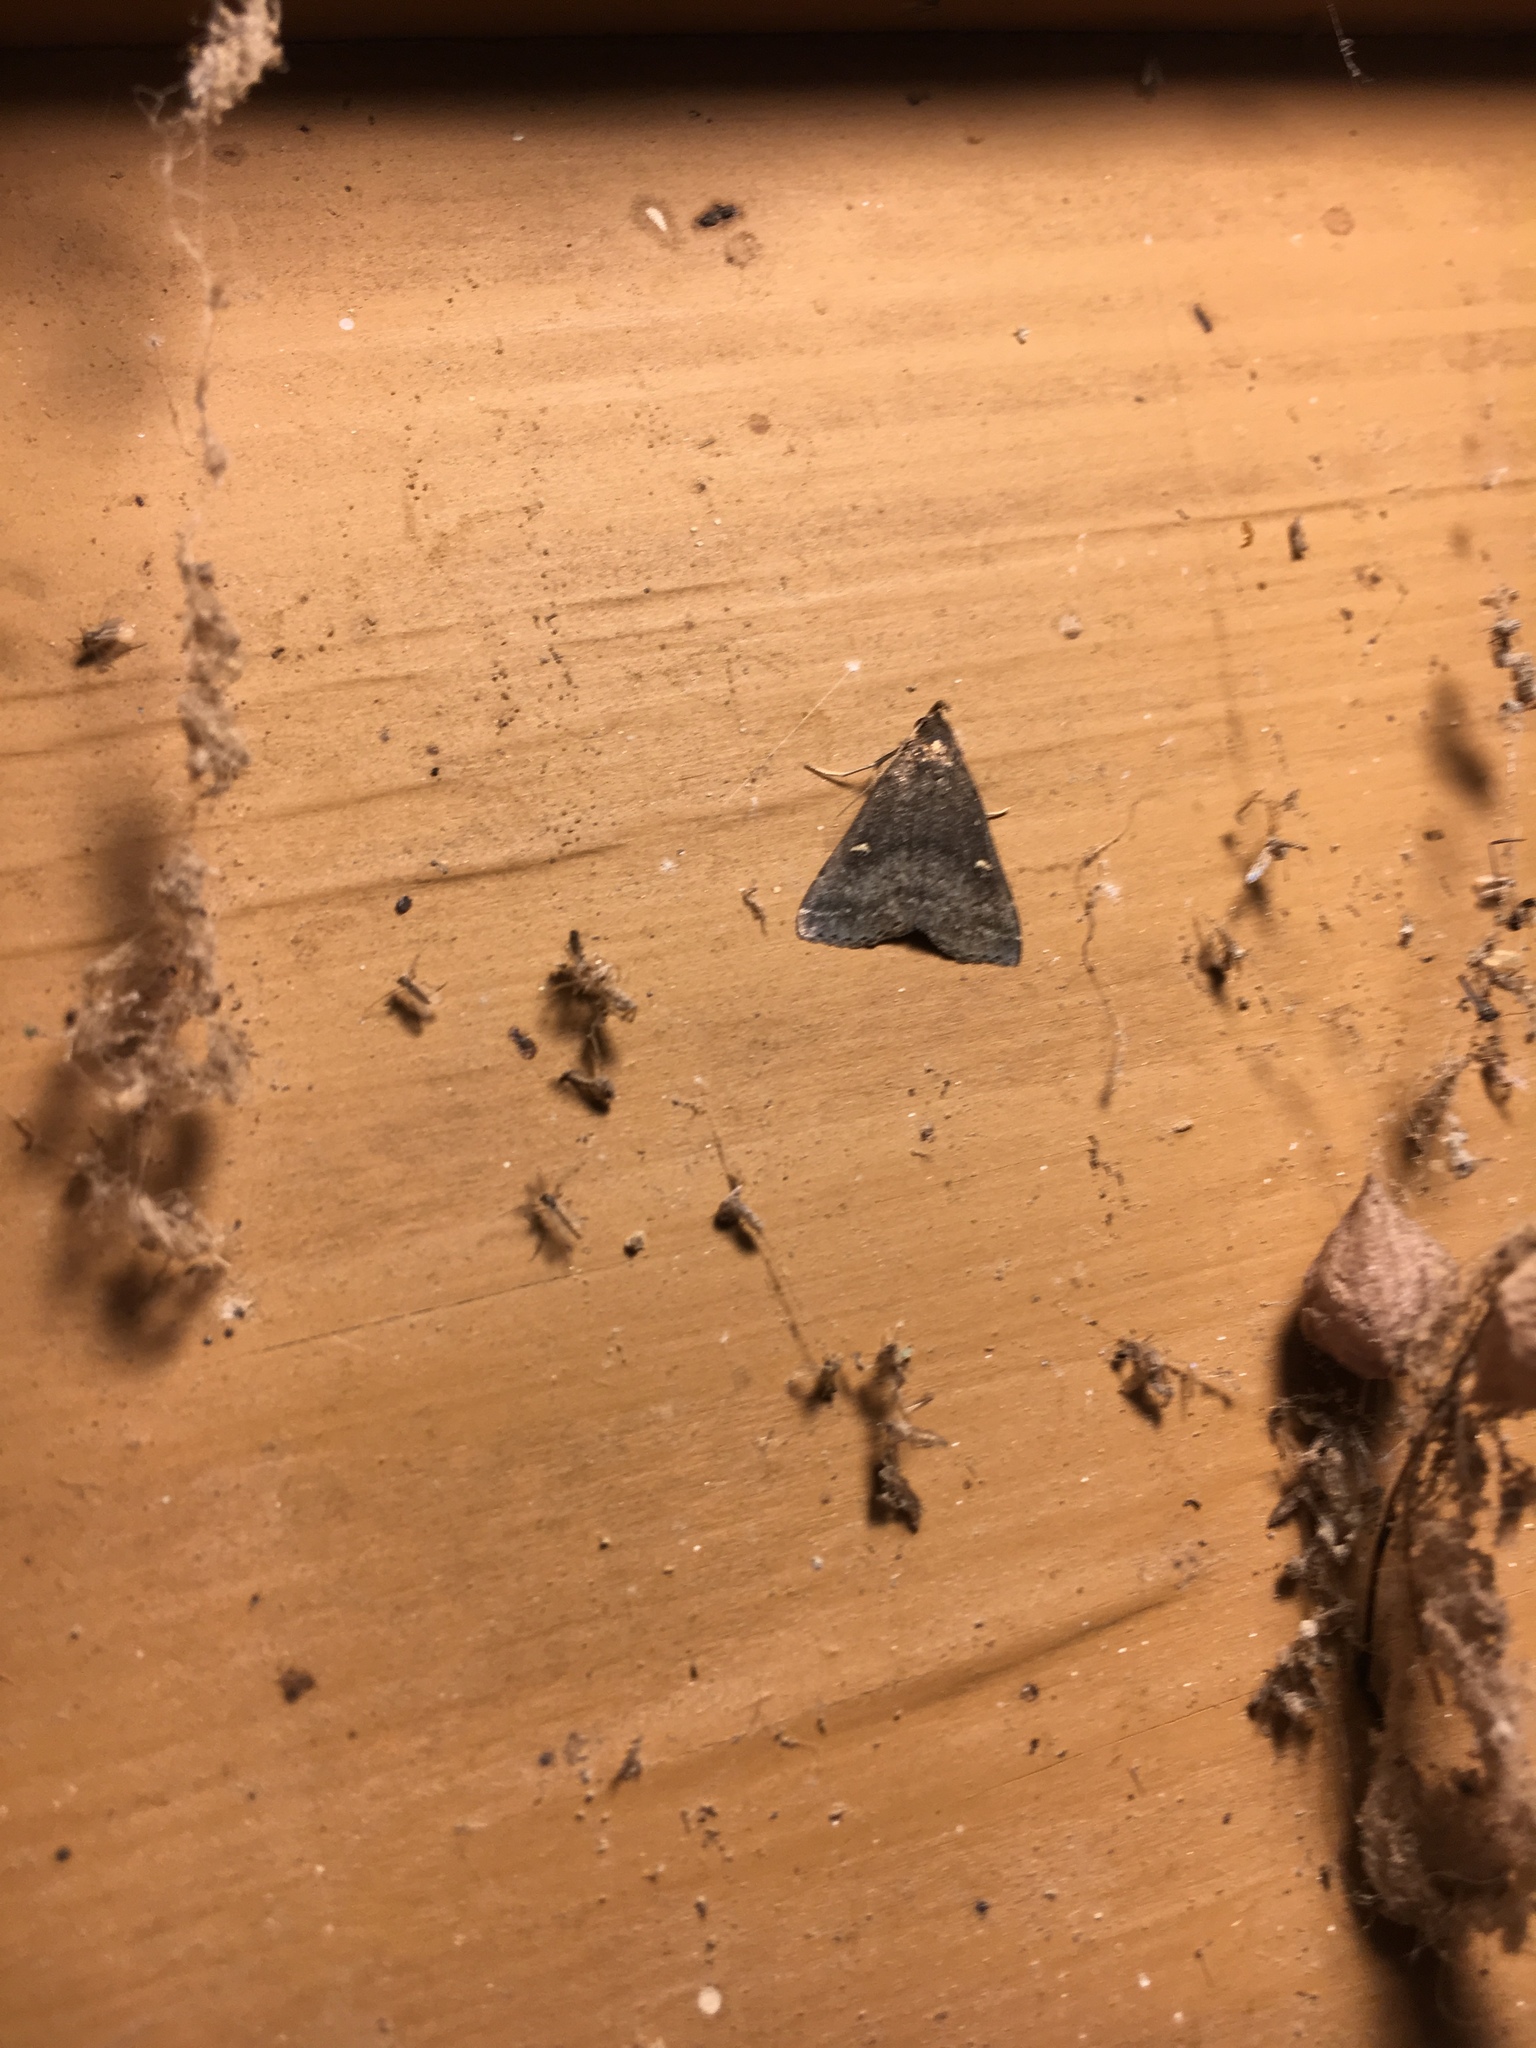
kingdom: Animalia
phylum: Arthropoda
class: Insecta
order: Lepidoptera
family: Erebidae
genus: Tetanolita
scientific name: Tetanolita mynesalis
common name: Smoky tetanolita moth
